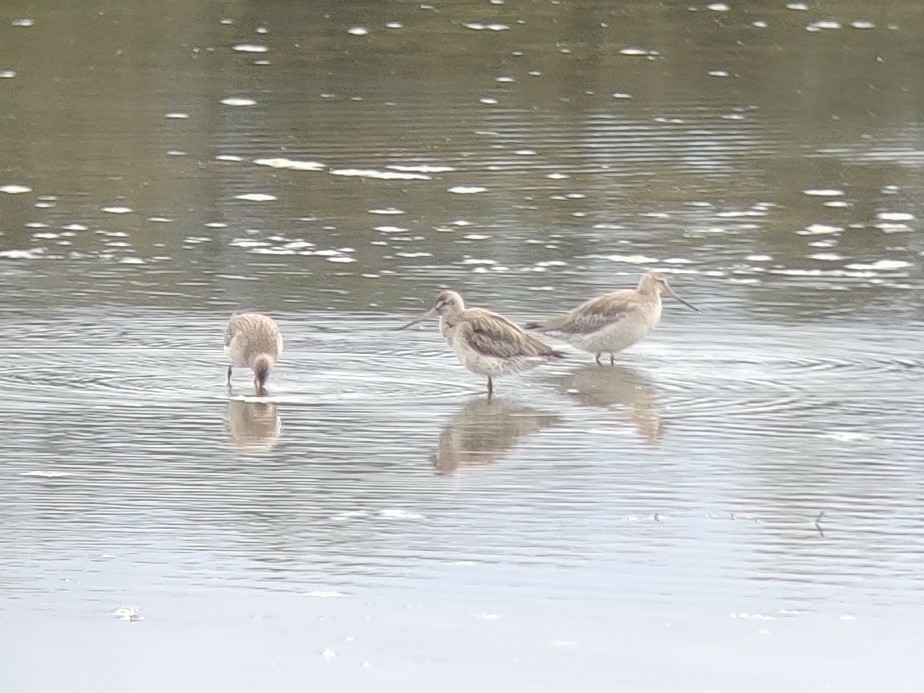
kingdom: Animalia
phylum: Chordata
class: Aves
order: Charadriiformes
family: Scolopacidae
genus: Limosa
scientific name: Limosa lapponica
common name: Bar-tailed godwit
